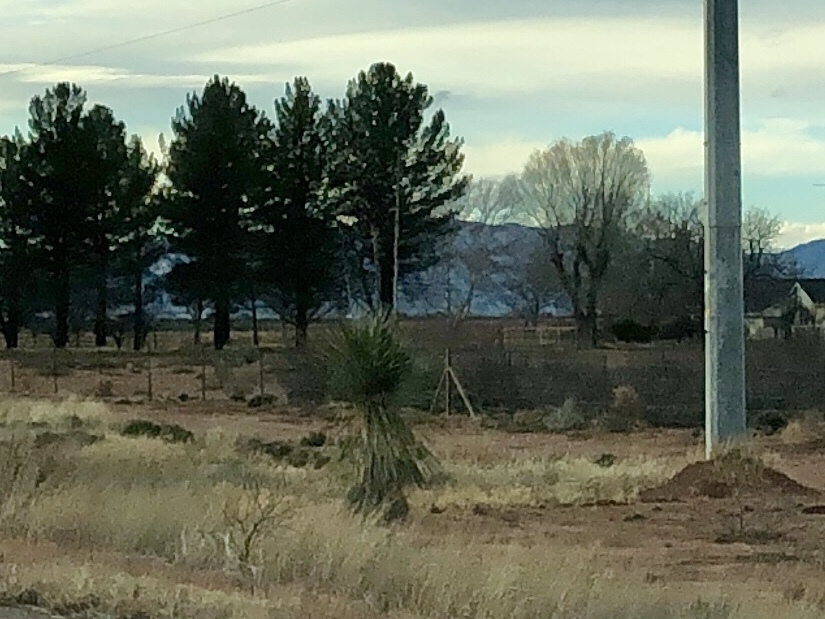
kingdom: Plantae
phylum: Tracheophyta
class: Liliopsida
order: Asparagales
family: Asparagaceae
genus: Yucca
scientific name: Yucca elata
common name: Palmella
